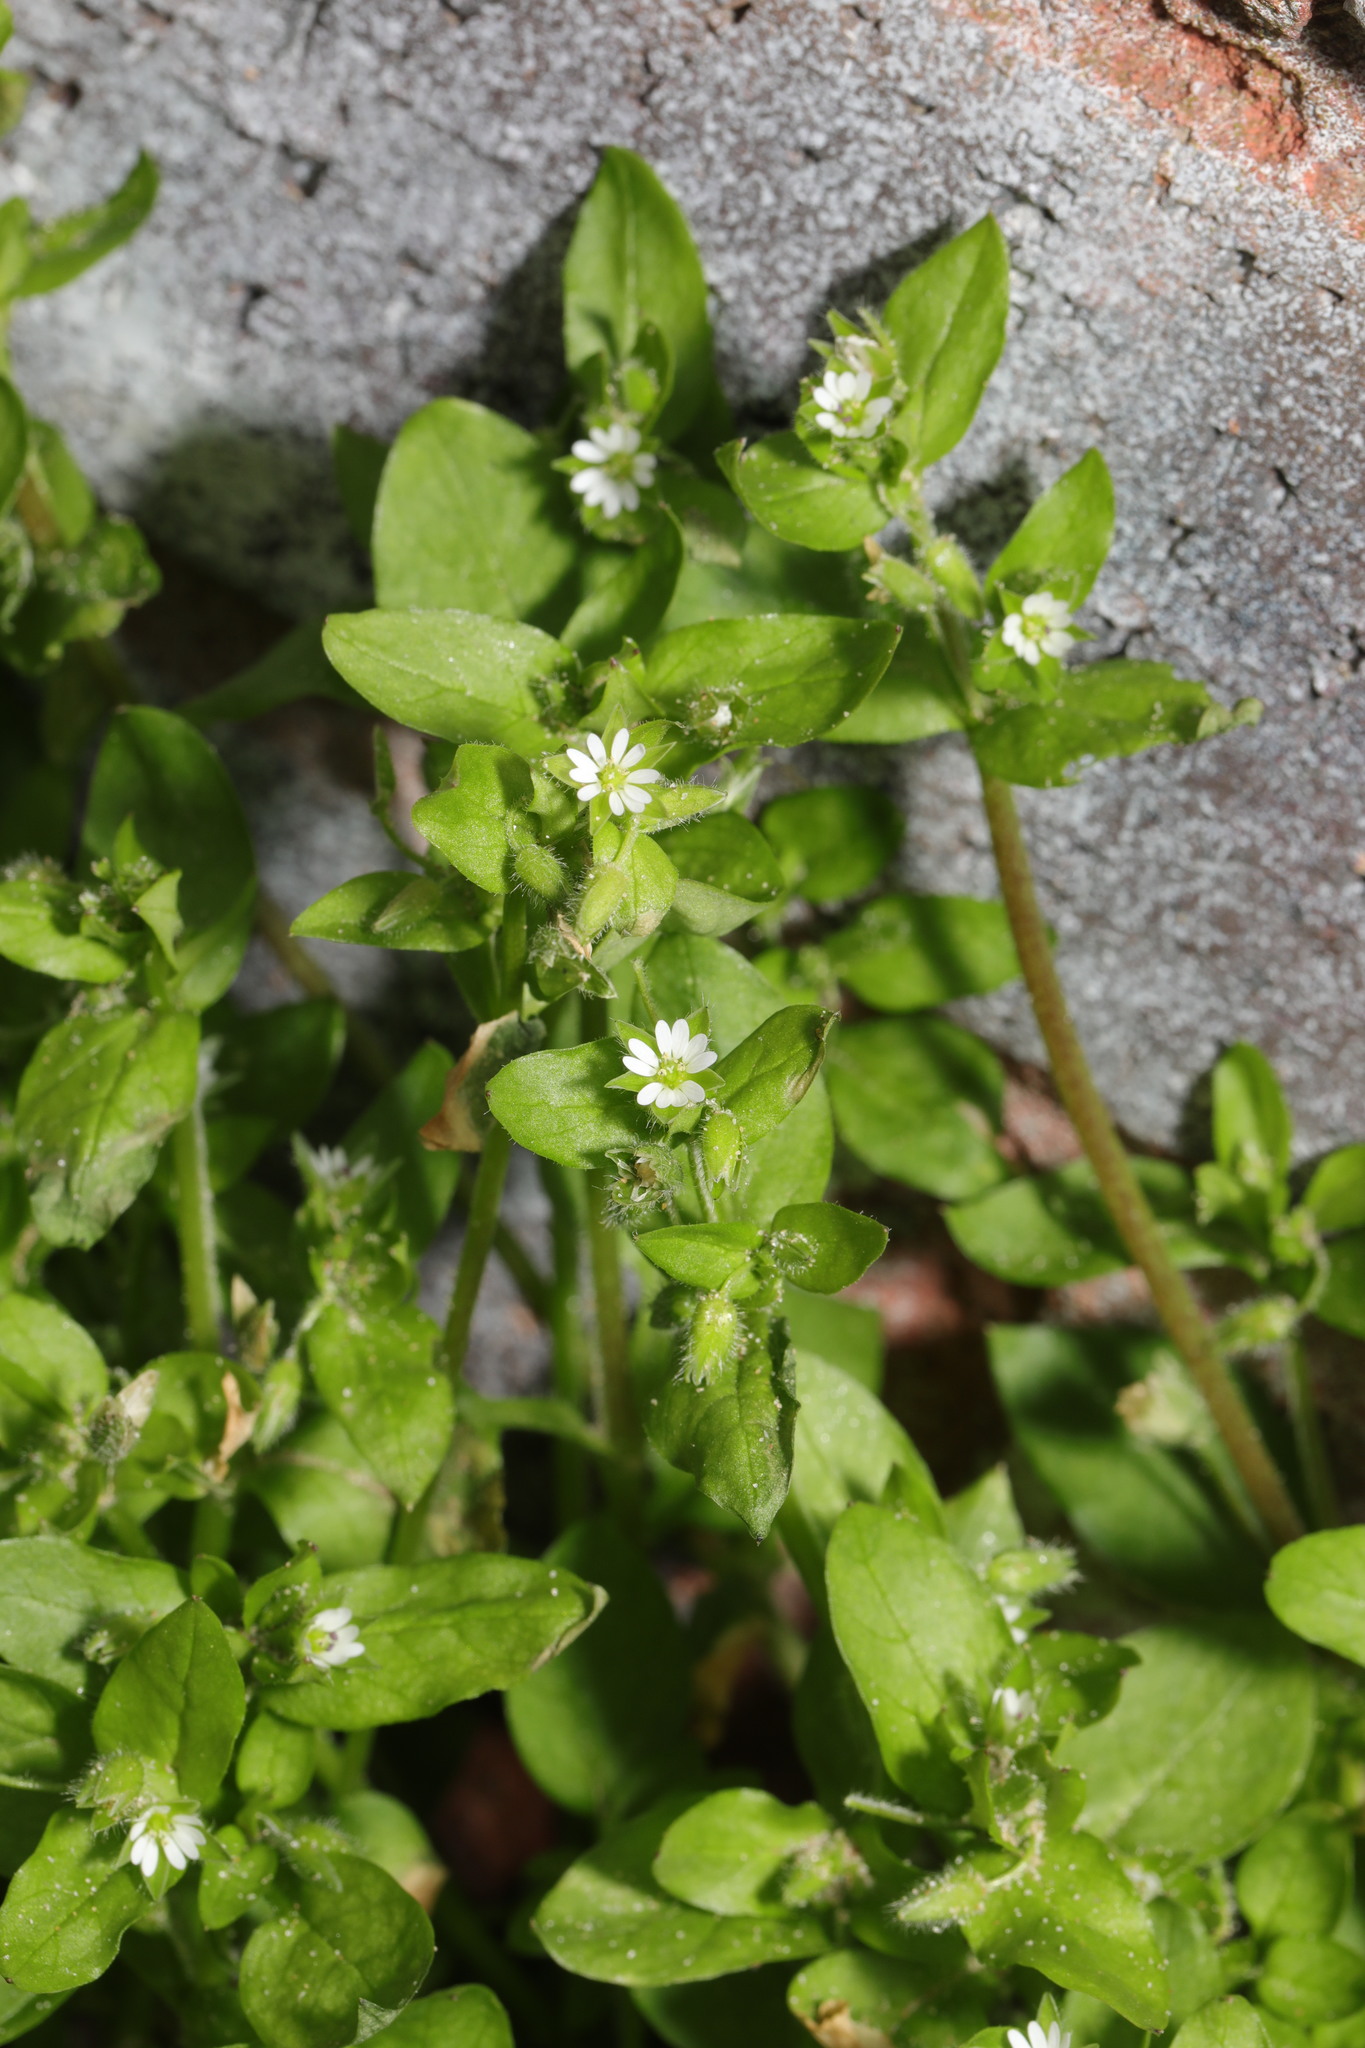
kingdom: Plantae
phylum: Tracheophyta
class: Magnoliopsida
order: Caryophyllales
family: Caryophyllaceae
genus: Stellaria
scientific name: Stellaria media
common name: Common chickweed
